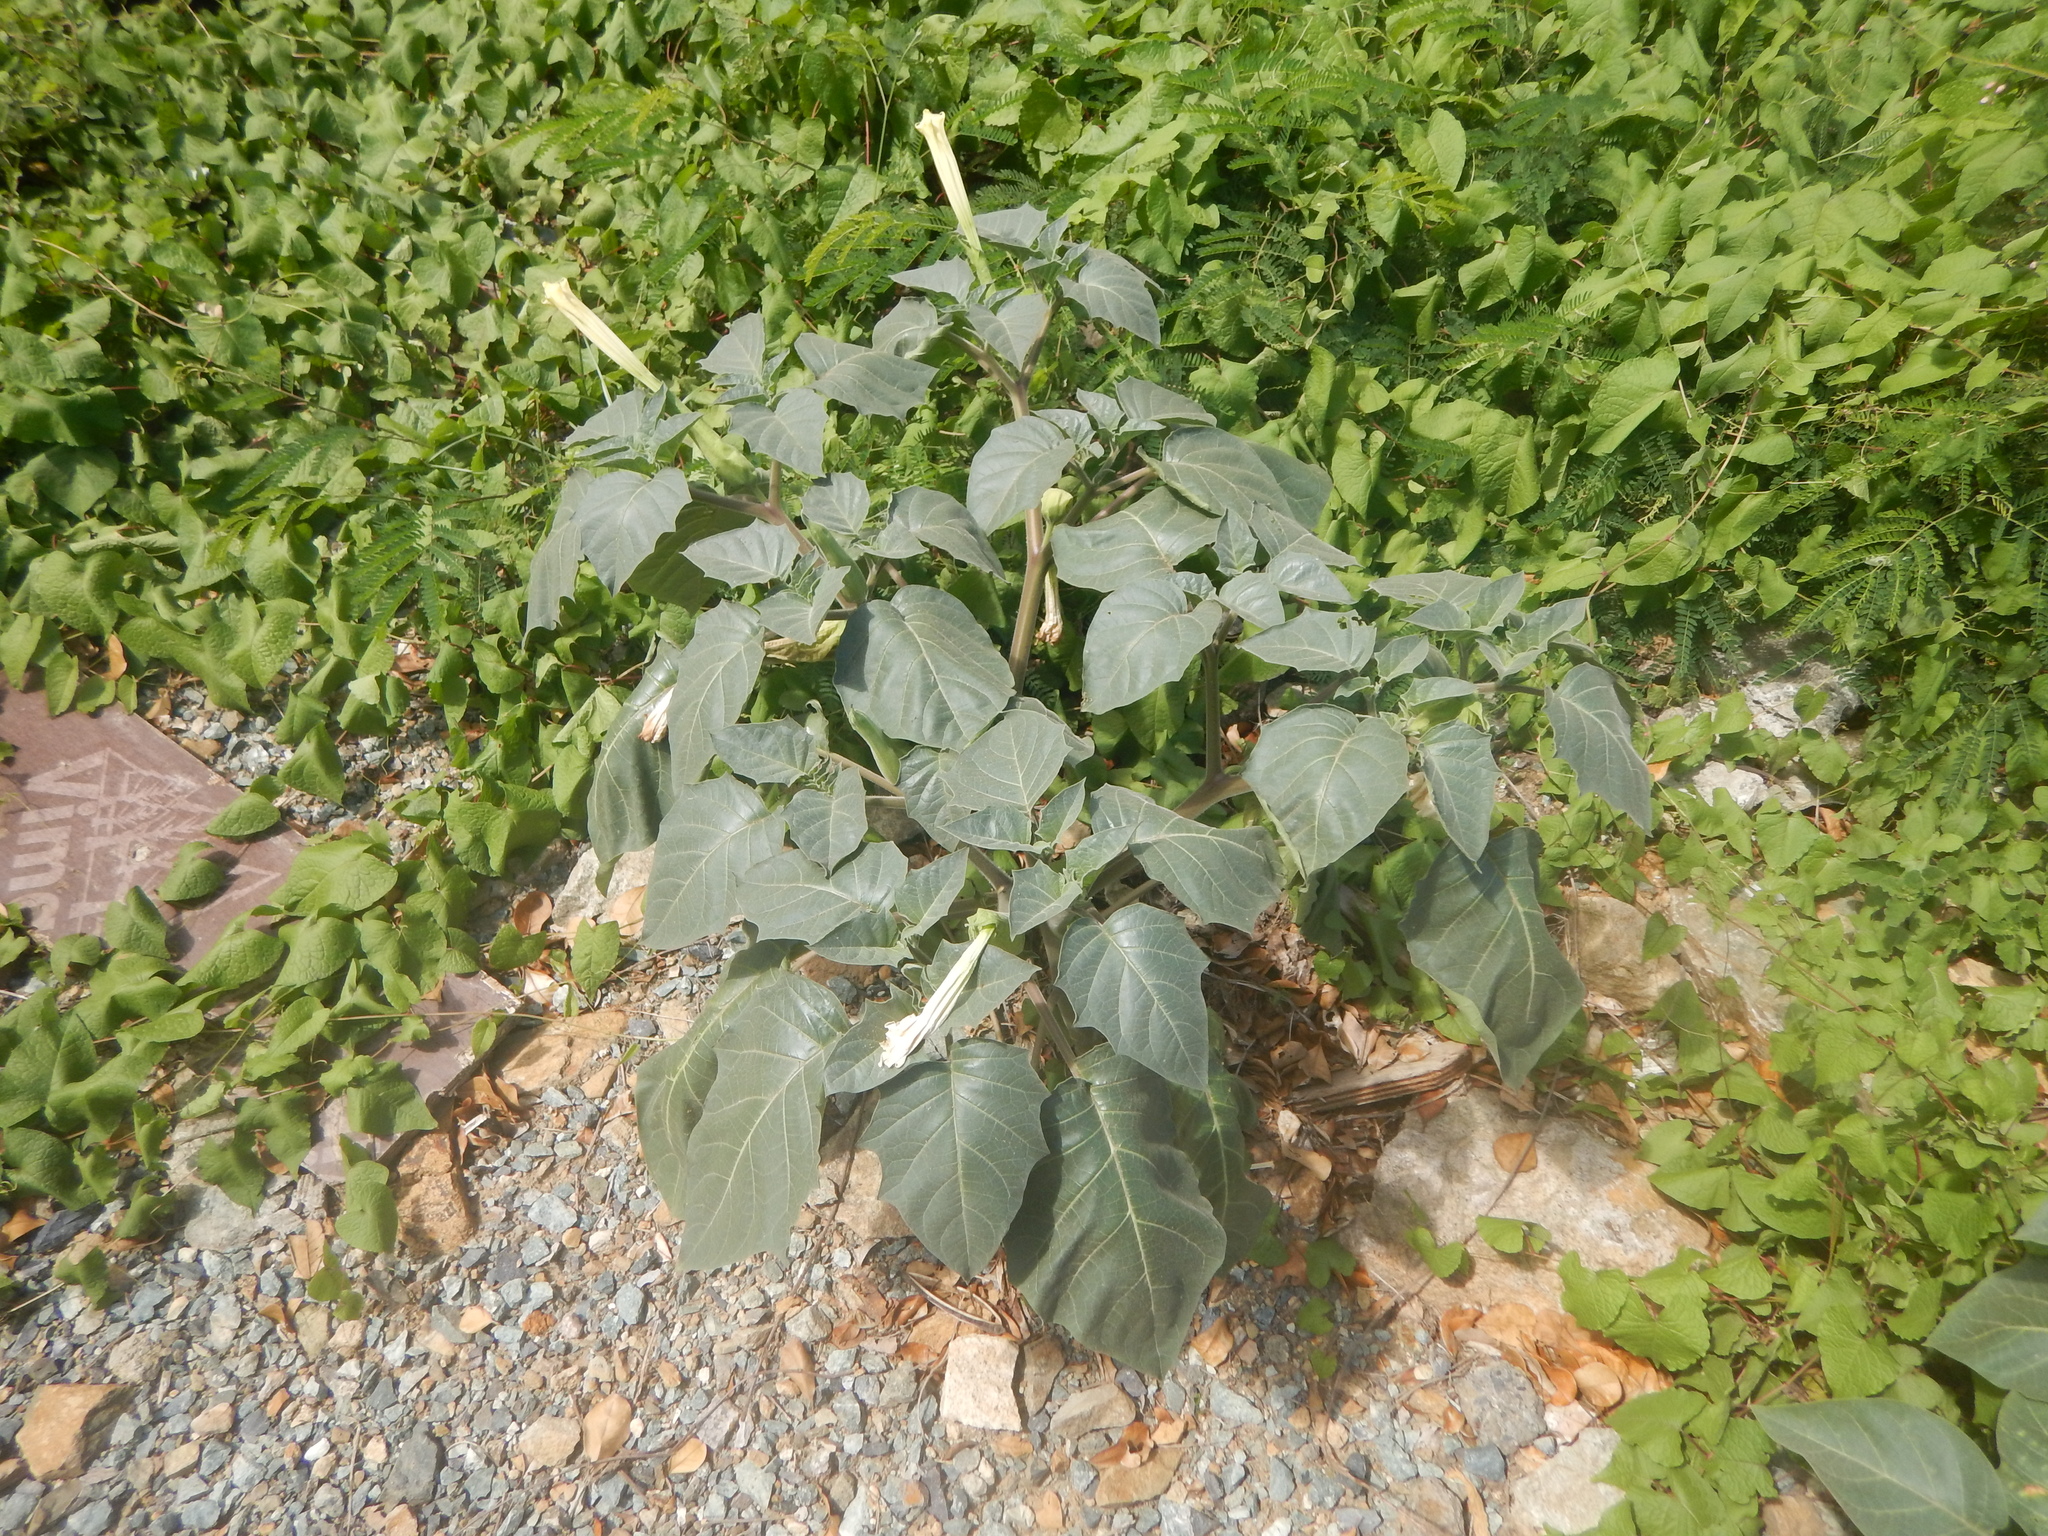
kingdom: Plantae
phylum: Tracheophyta
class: Magnoliopsida
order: Solanales
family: Solanaceae
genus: Datura
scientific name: Datura innoxia
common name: Downy thorn-apple
